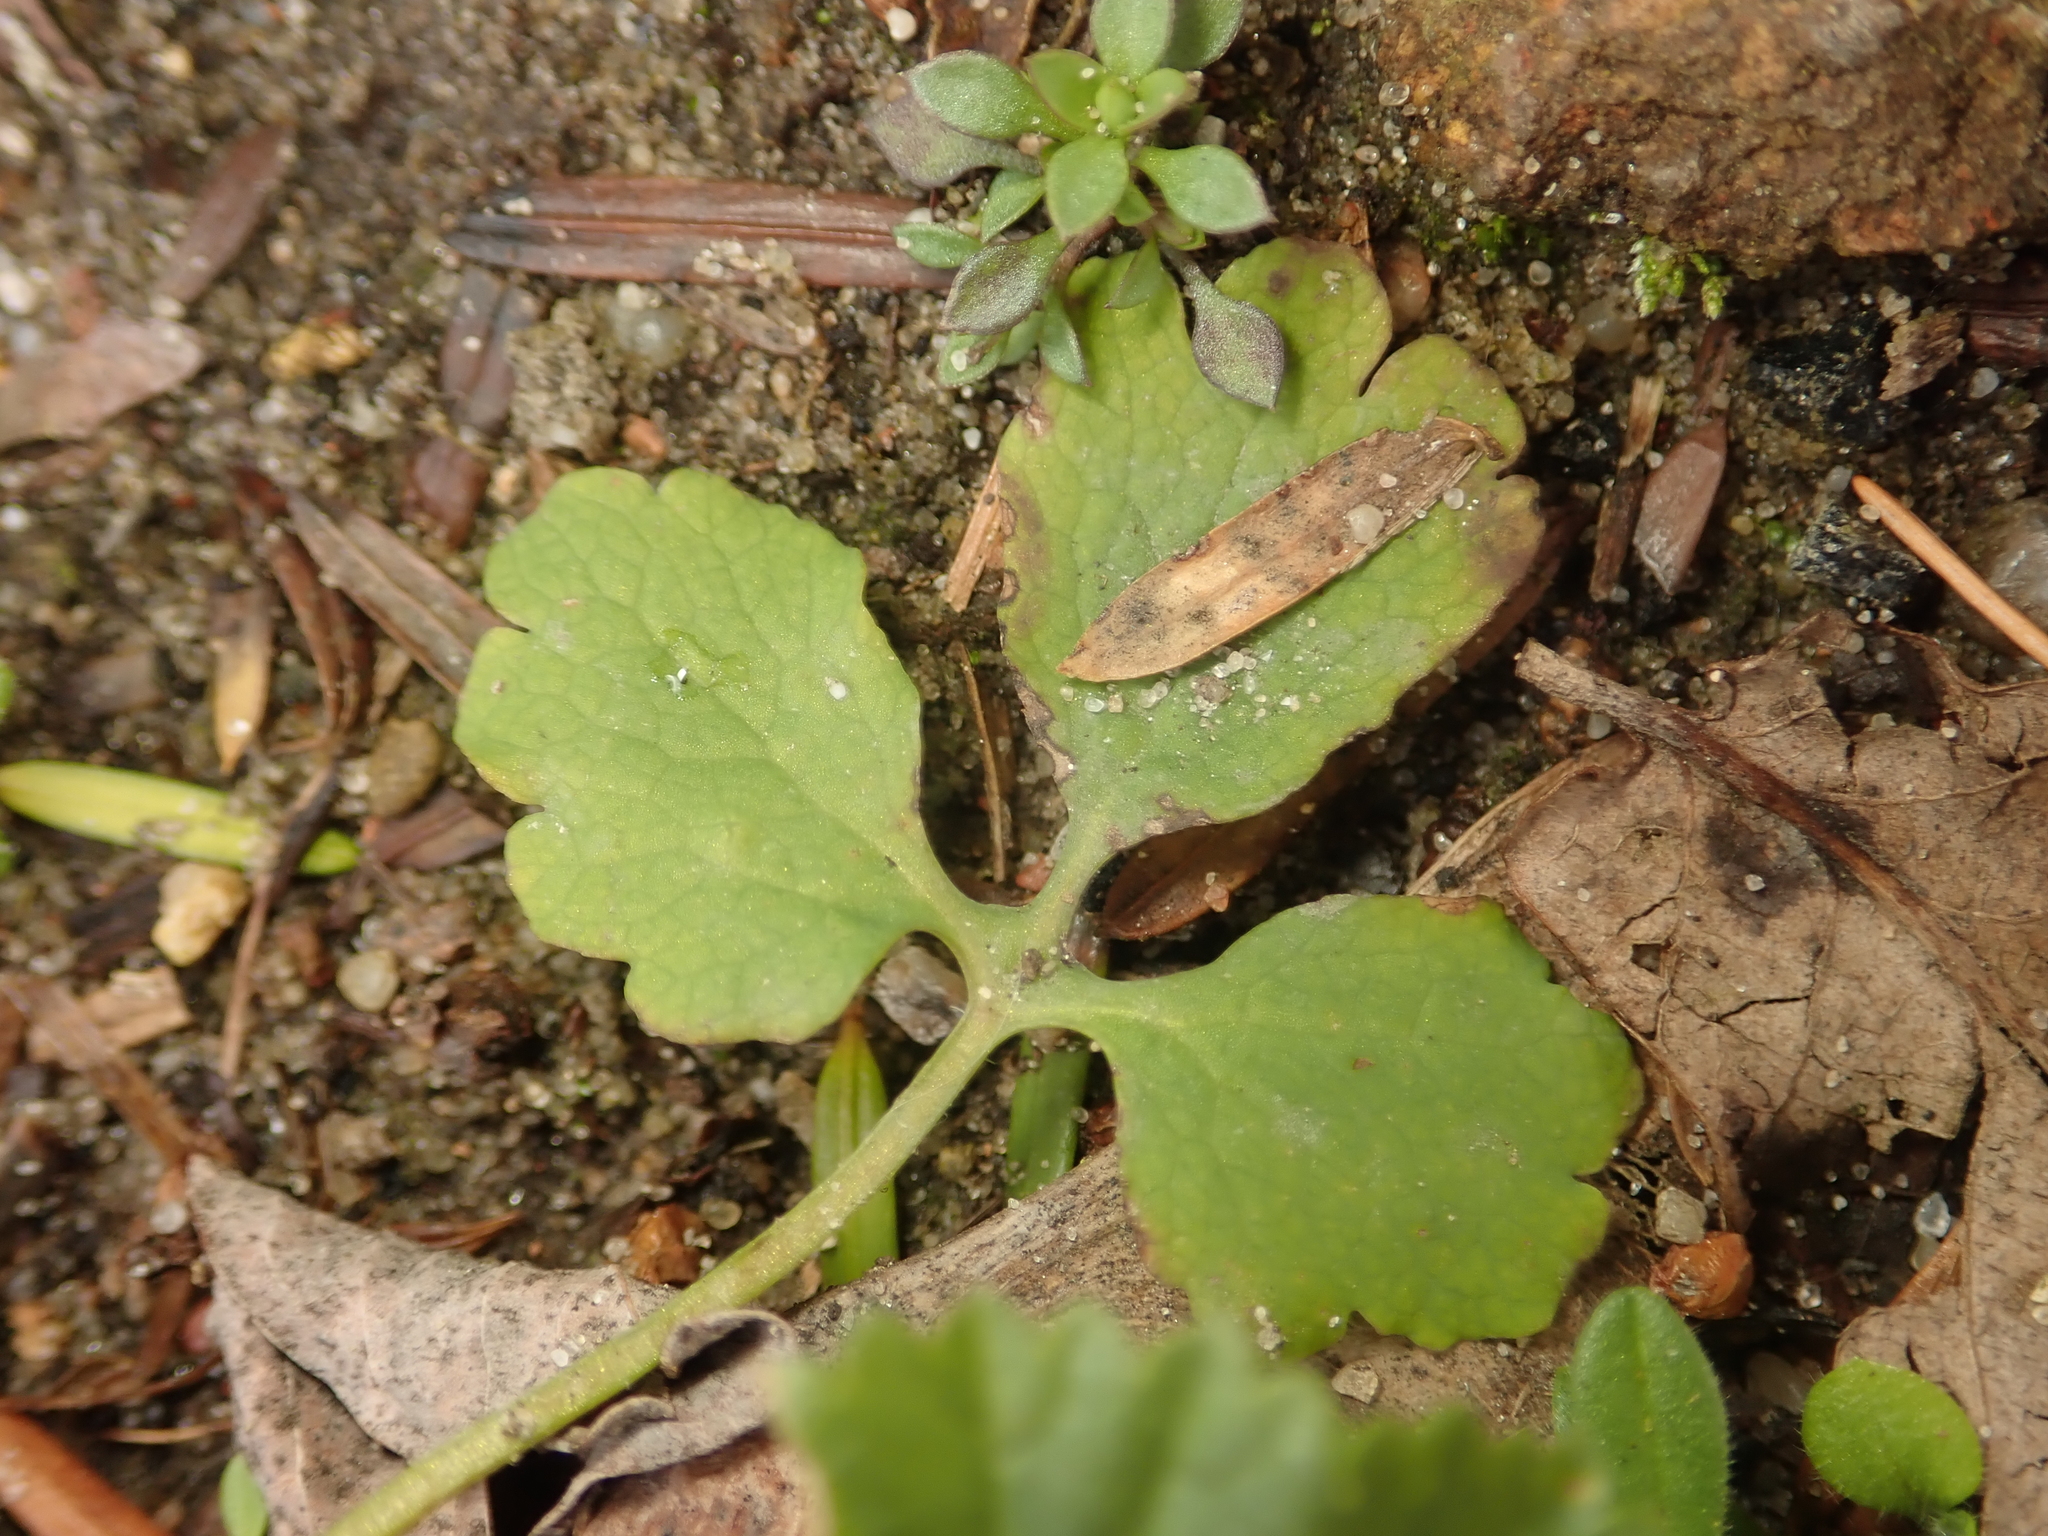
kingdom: Plantae
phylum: Tracheophyta
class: Magnoliopsida
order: Ranunculales
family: Papaveraceae
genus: Chelidonium
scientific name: Chelidonium majus
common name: Greater celandine
